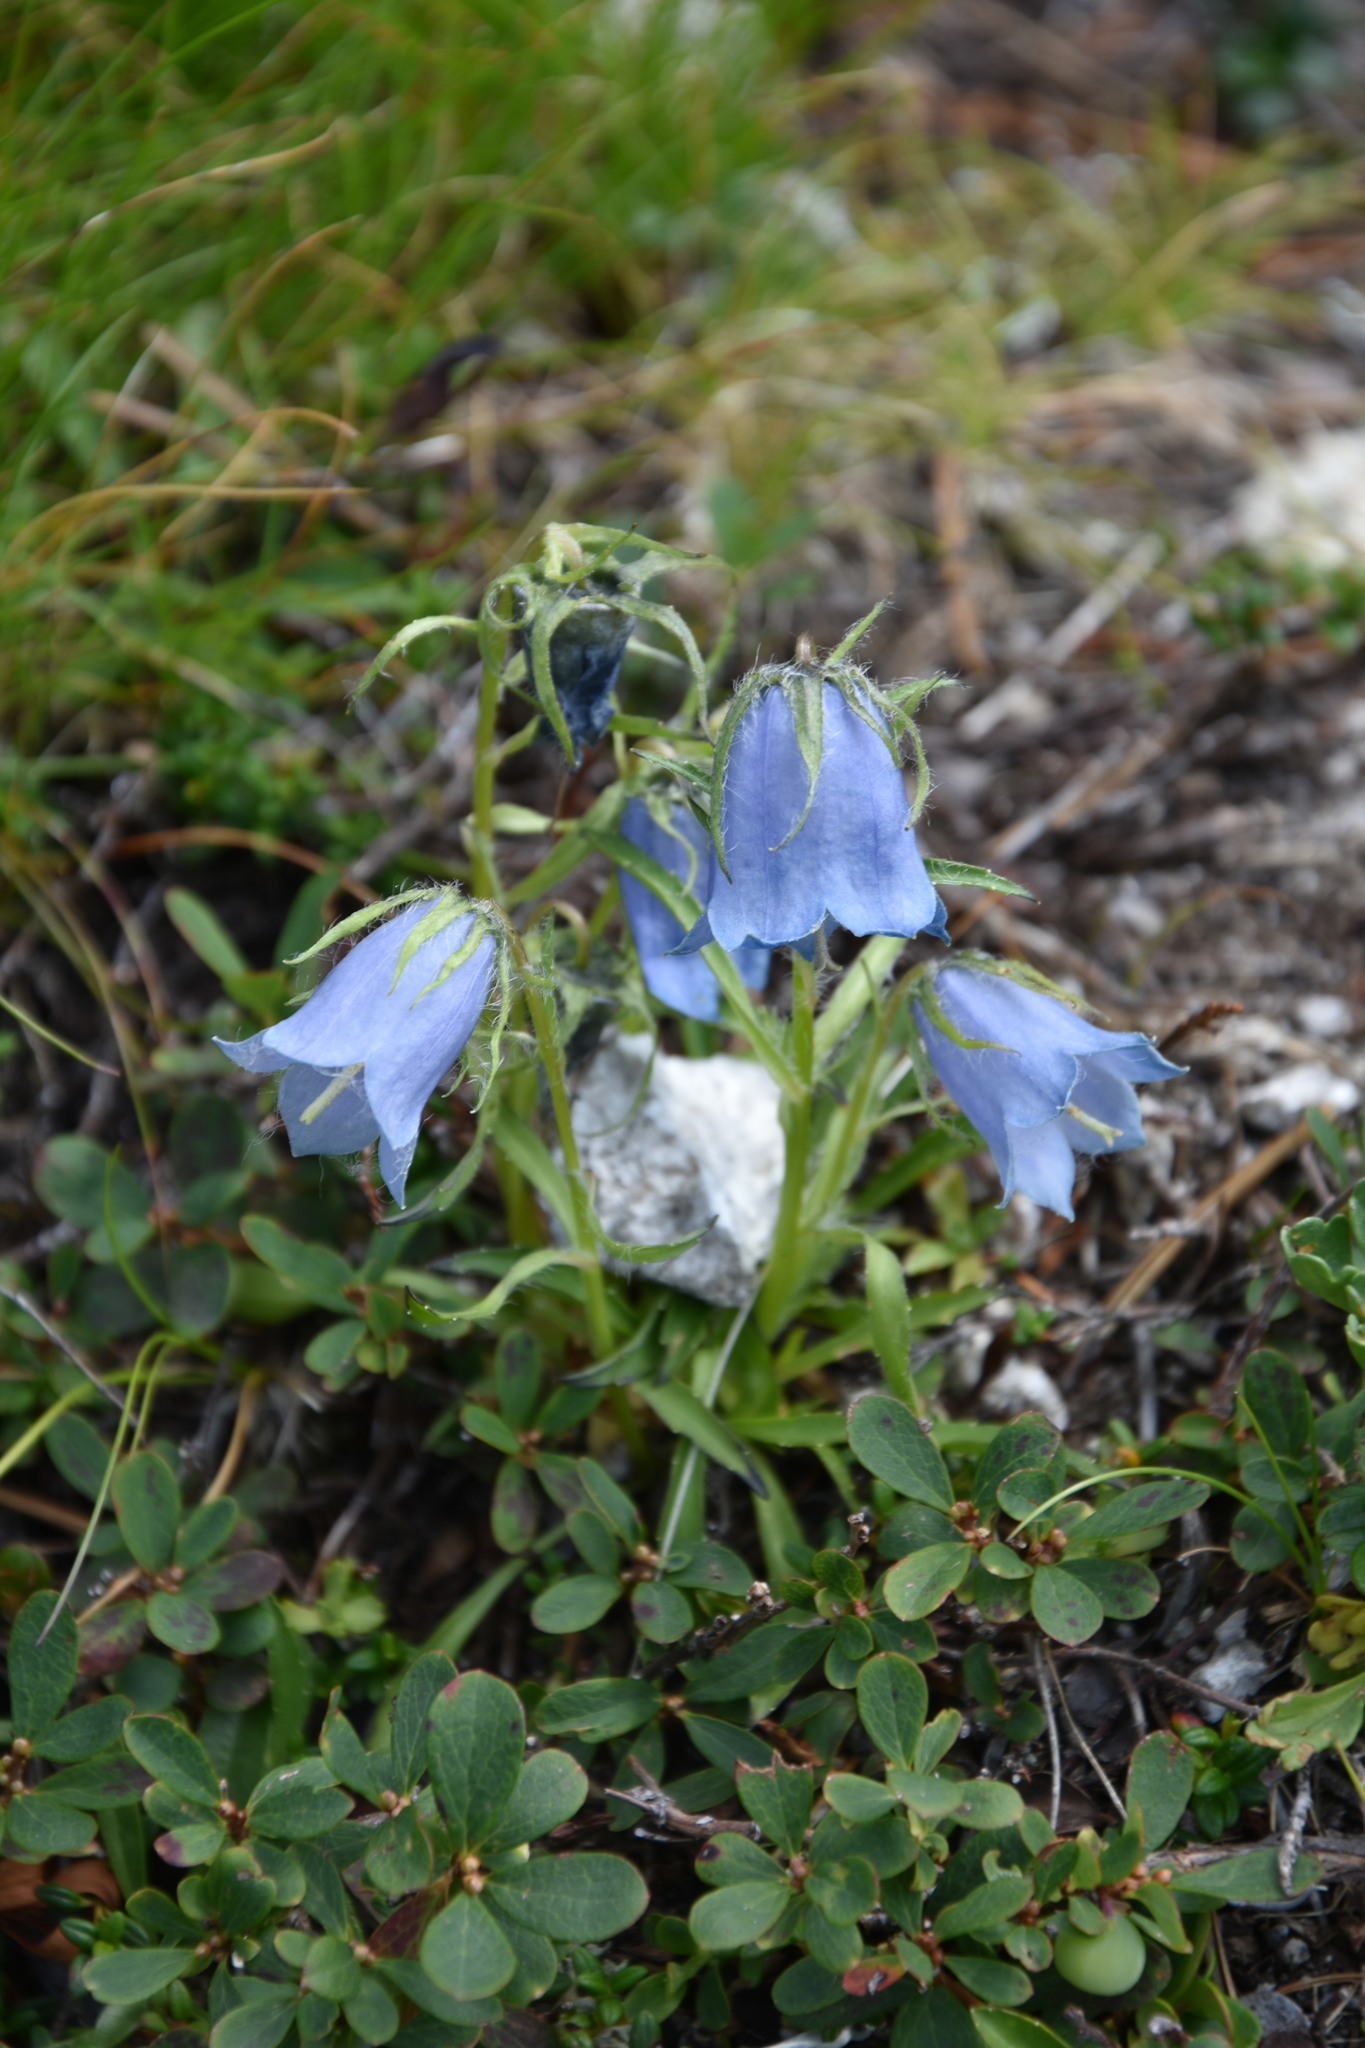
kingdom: Plantae
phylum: Tracheophyta
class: Magnoliopsida
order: Asterales
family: Campanulaceae
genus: Campanula
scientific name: Campanula alpina
